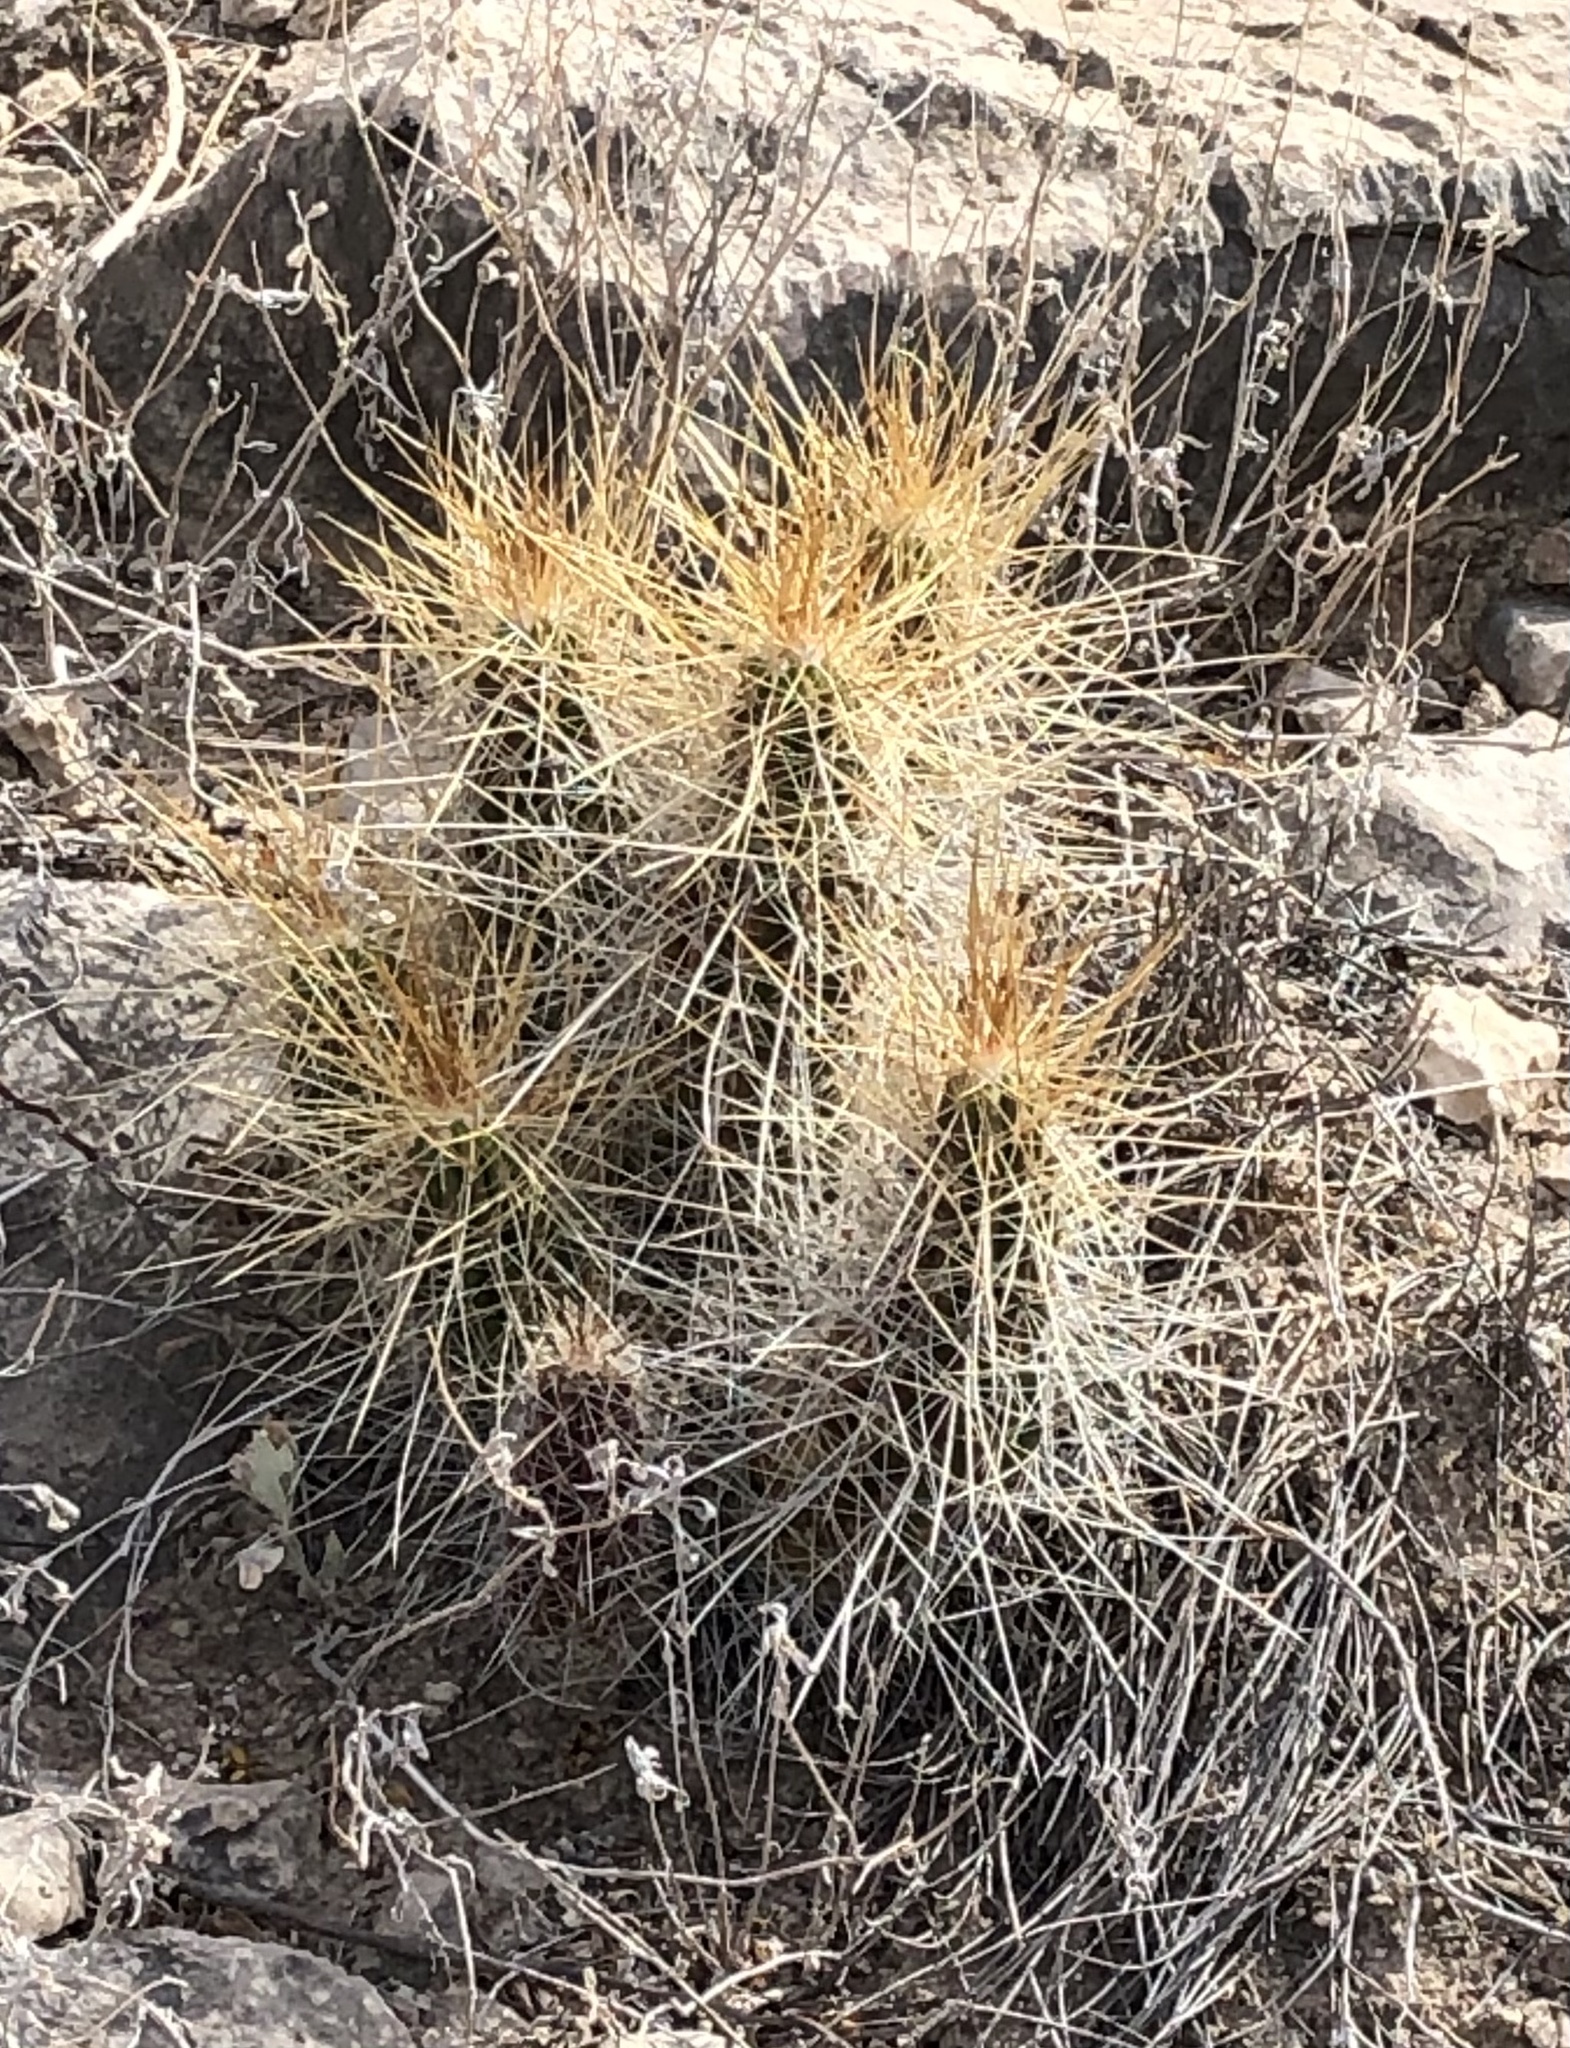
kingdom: Plantae
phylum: Tracheophyta
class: Magnoliopsida
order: Caryophyllales
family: Cactaceae
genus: Echinocereus
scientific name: Echinocereus stramineus
